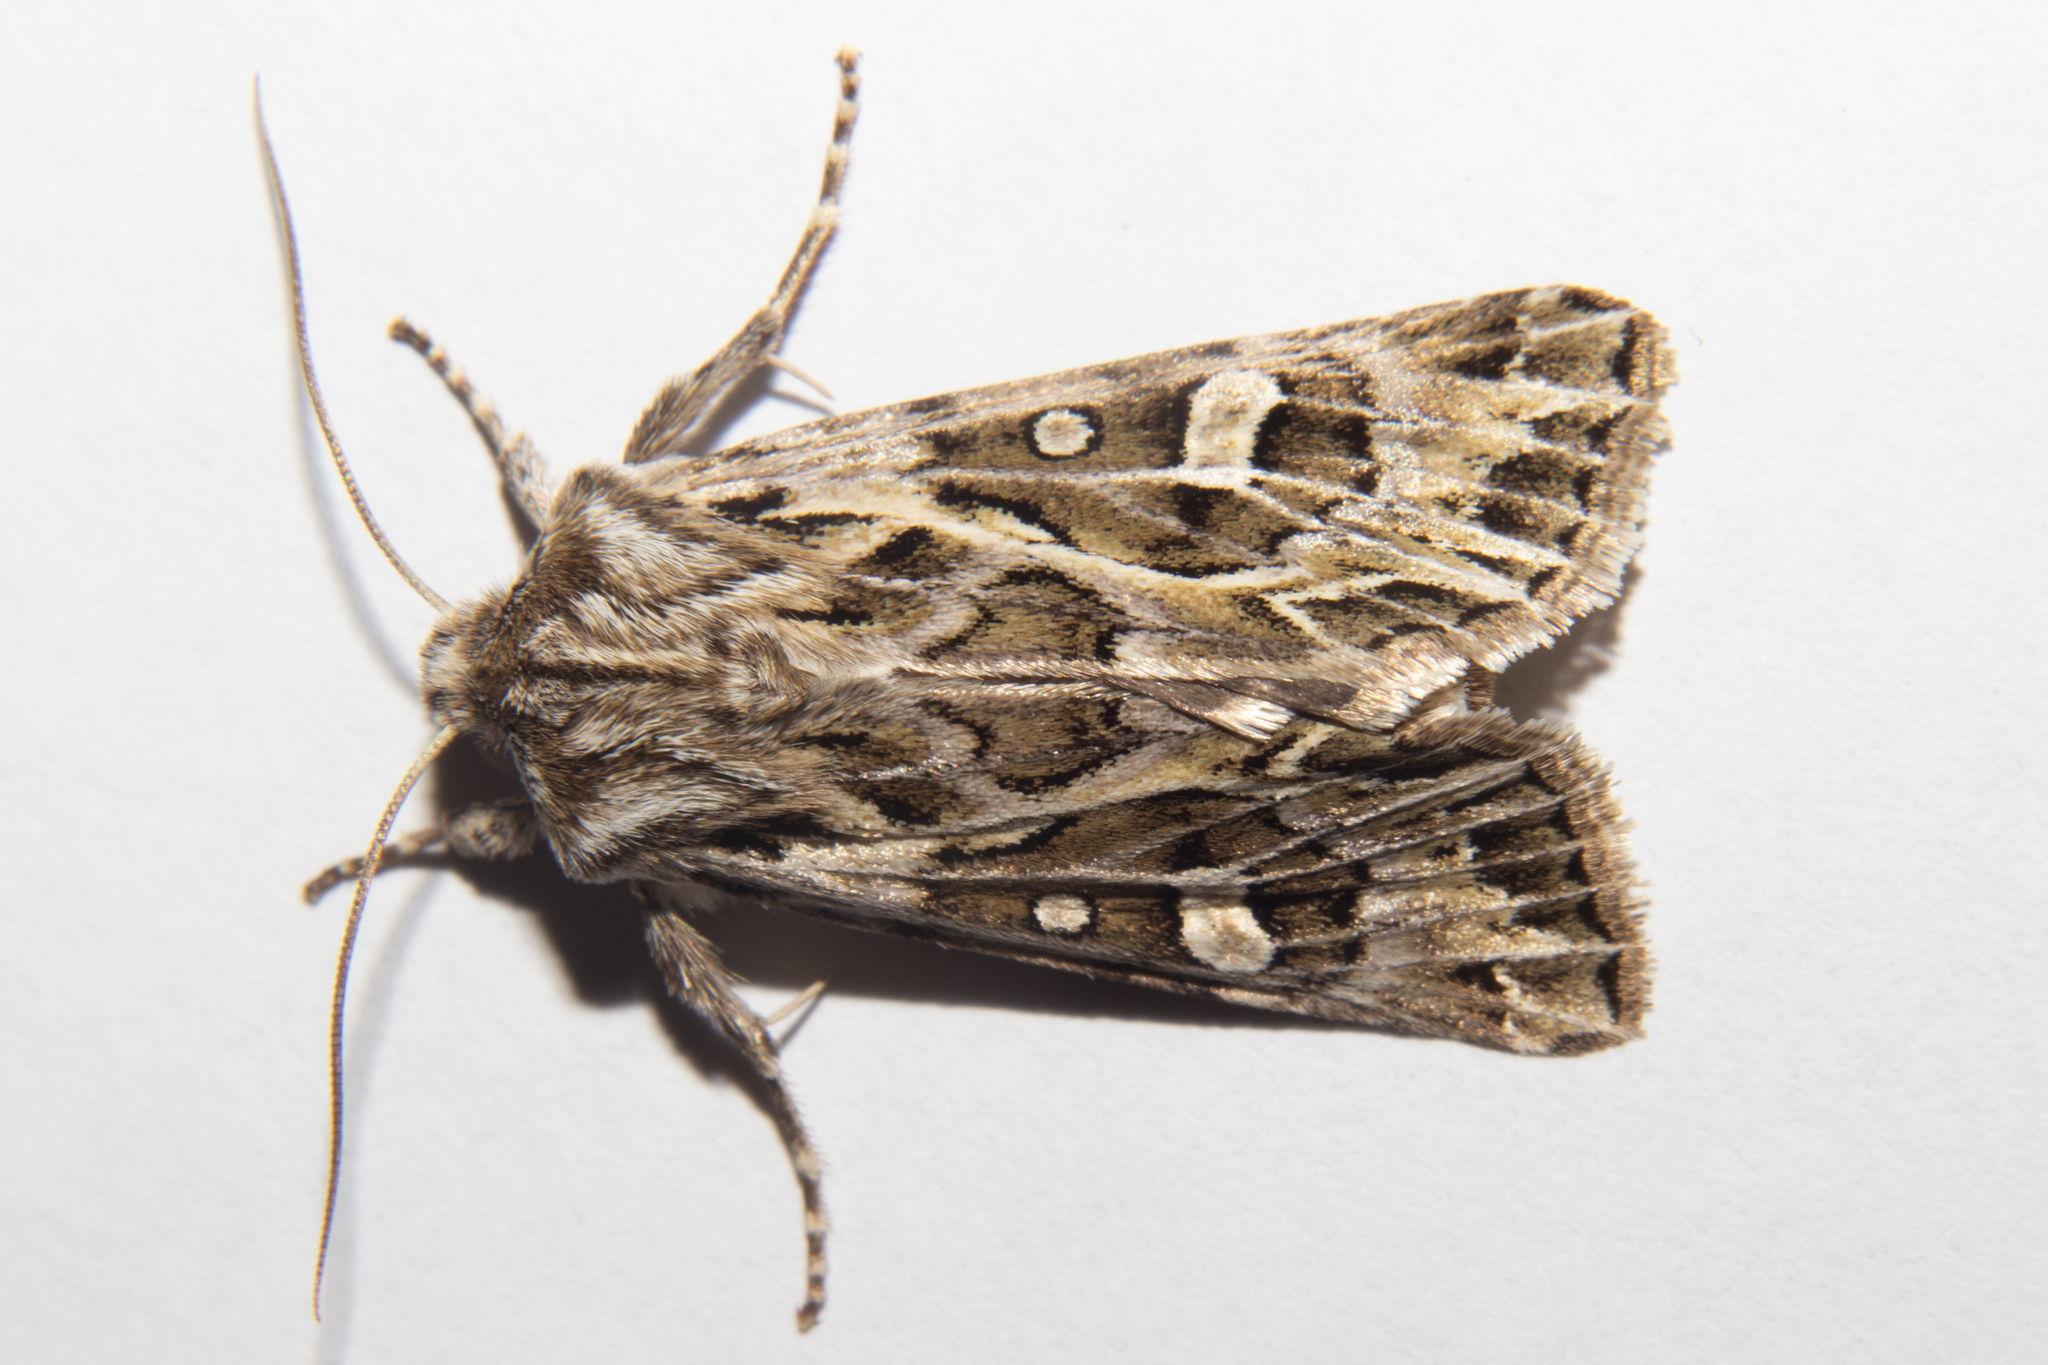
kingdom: Animalia
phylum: Arthropoda
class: Insecta
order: Lepidoptera
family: Noctuidae
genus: Ichneutica
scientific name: Ichneutica
